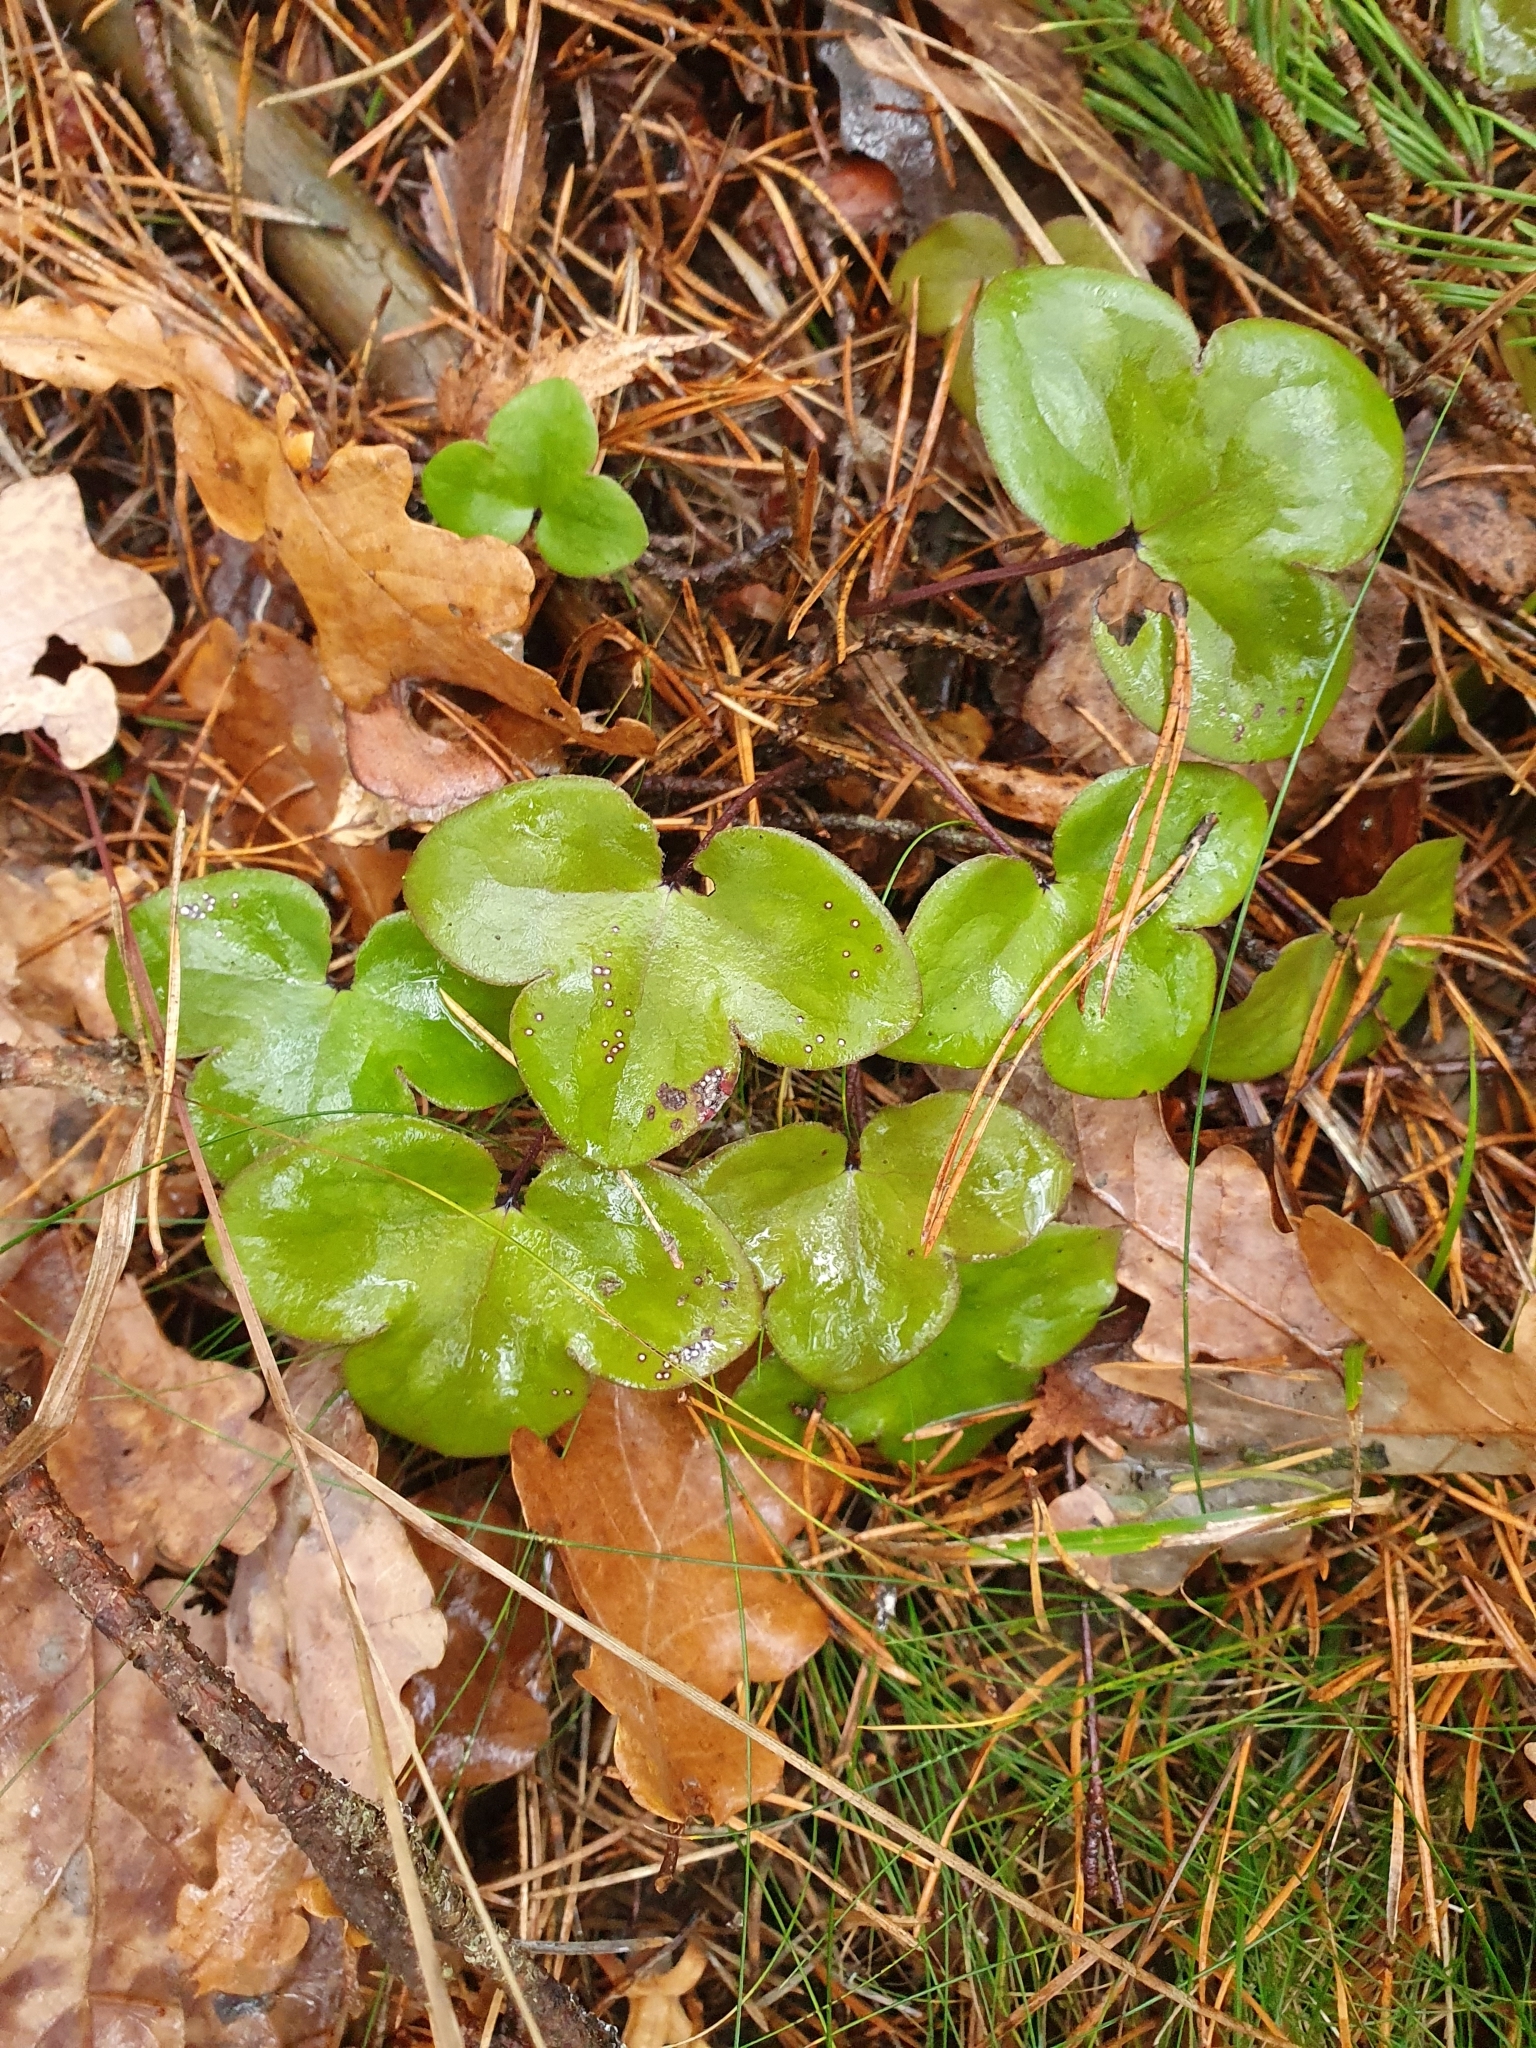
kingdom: Plantae
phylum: Tracheophyta
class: Magnoliopsida
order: Ranunculales
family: Ranunculaceae
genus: Hepatica
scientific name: Hepatica nobilis
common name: Liverleaf
